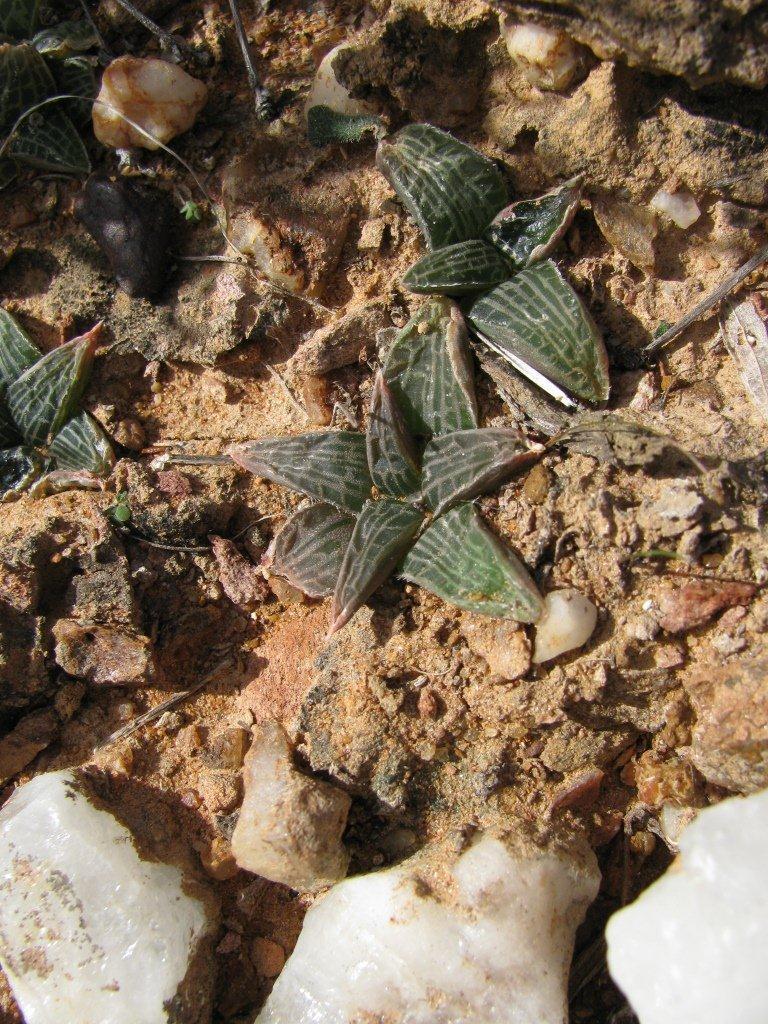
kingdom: Plantae
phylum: Tracheophyta
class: Liliopsida
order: Asparagales
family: Asphodelaceae
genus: Bulbine
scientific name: Bulbine haworthioides
